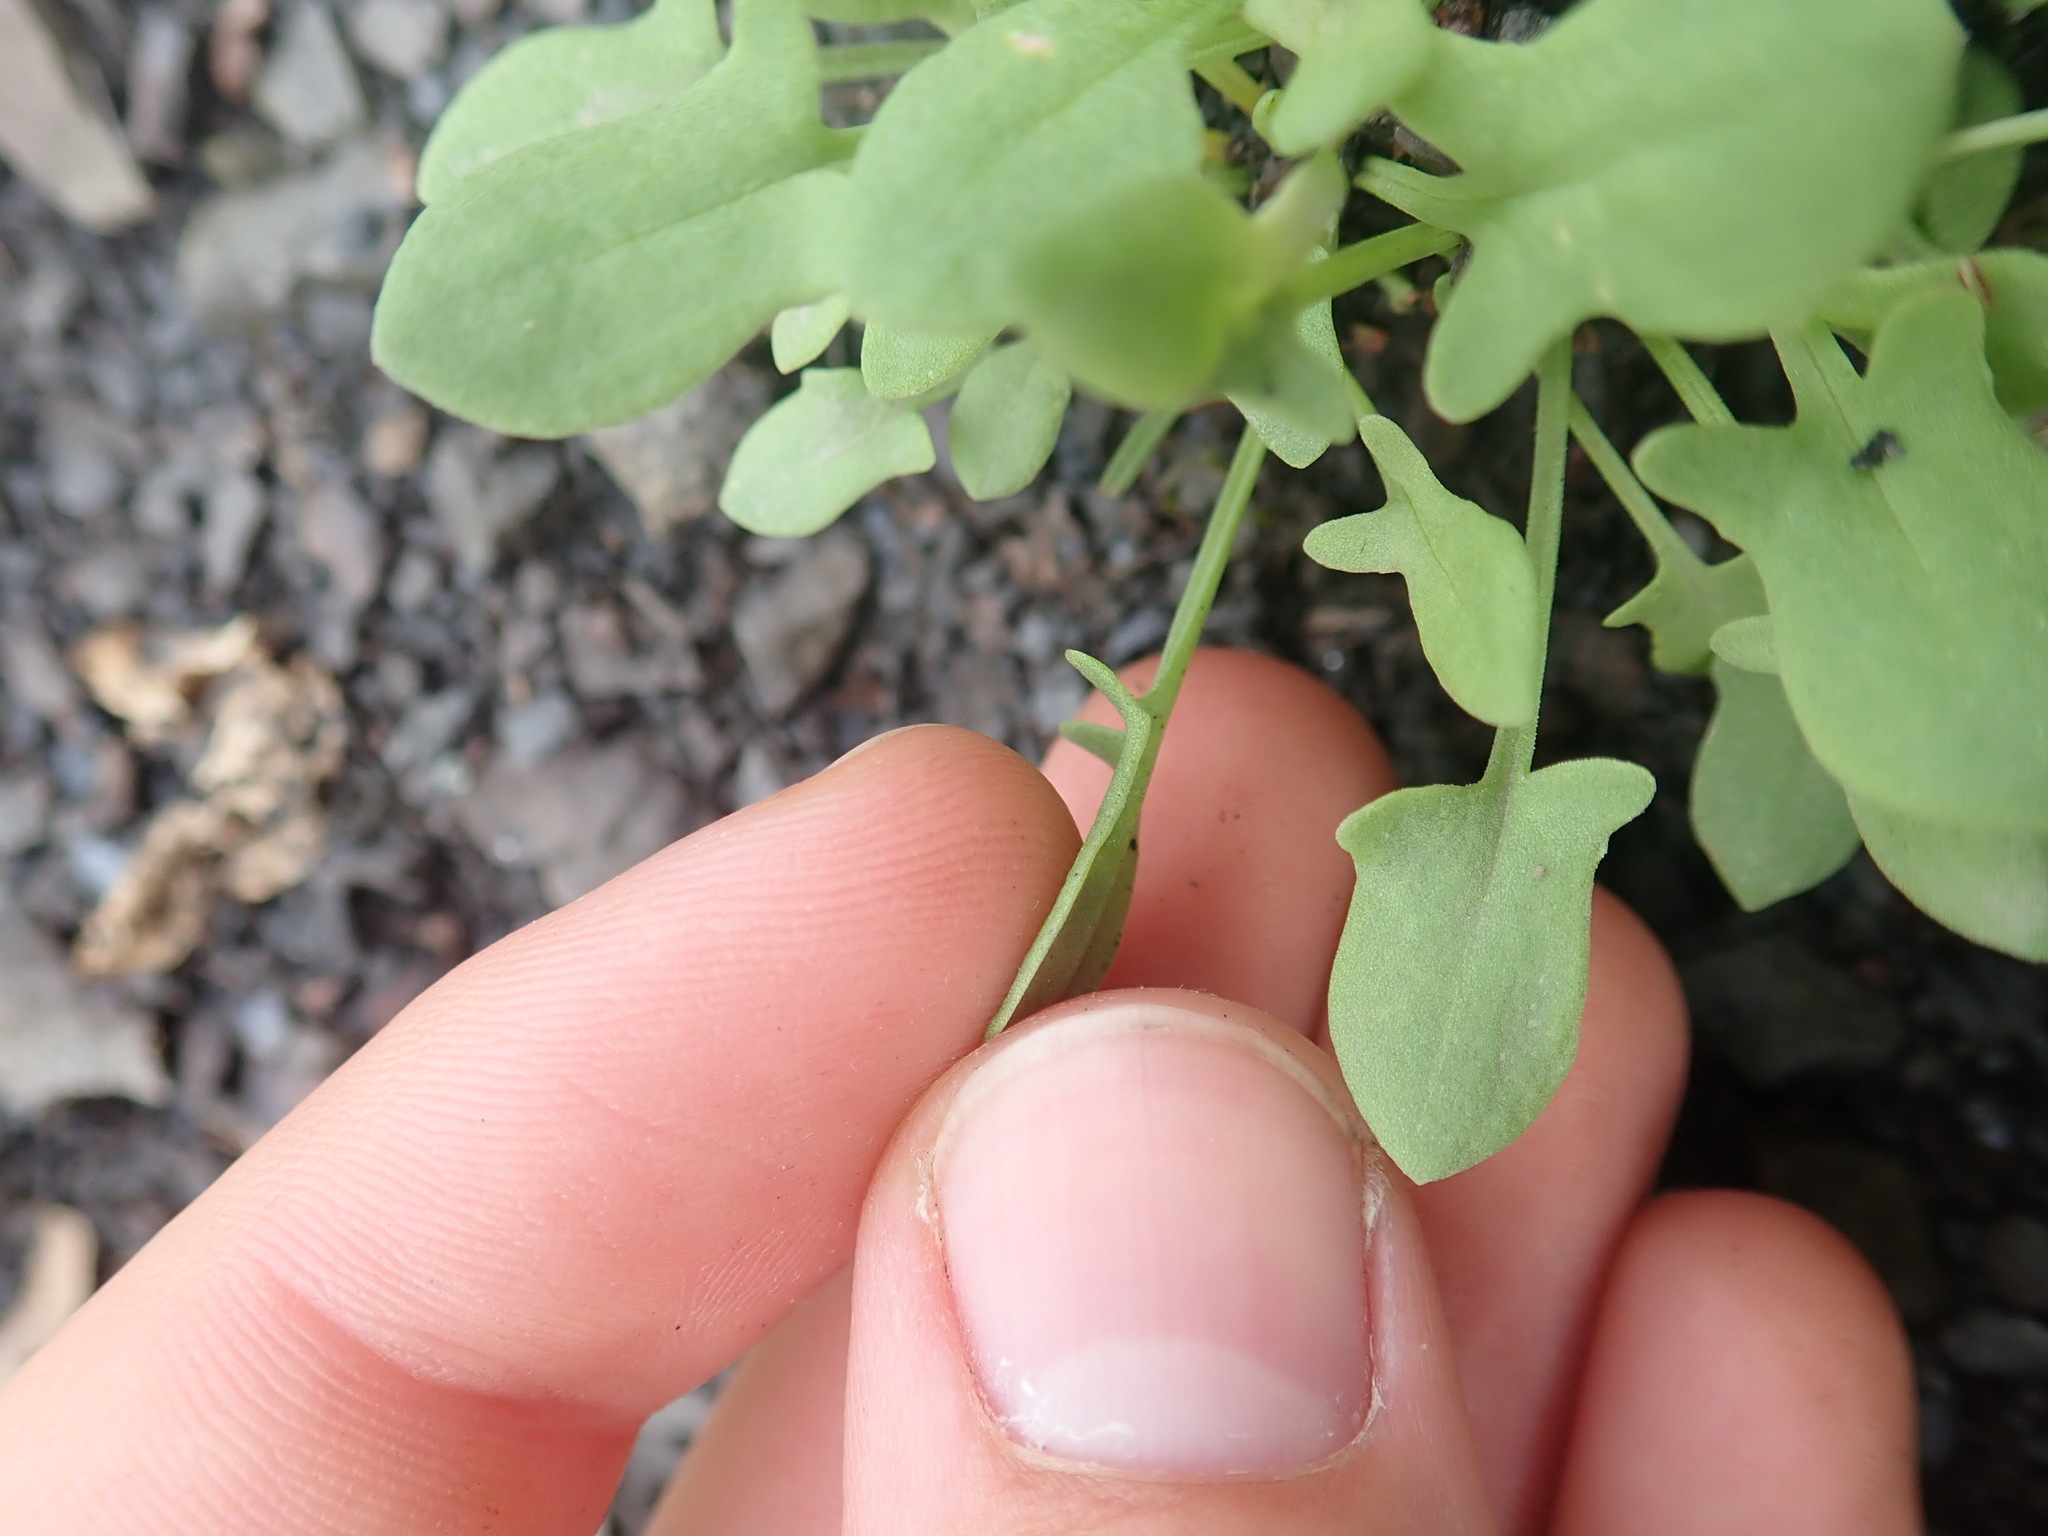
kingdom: Plantae
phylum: Tracheophyta
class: Magnoliopsida
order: Caryophyllales
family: Polygonaceae
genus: Rumex
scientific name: Rumex acetosella
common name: Common sheep sorrel
